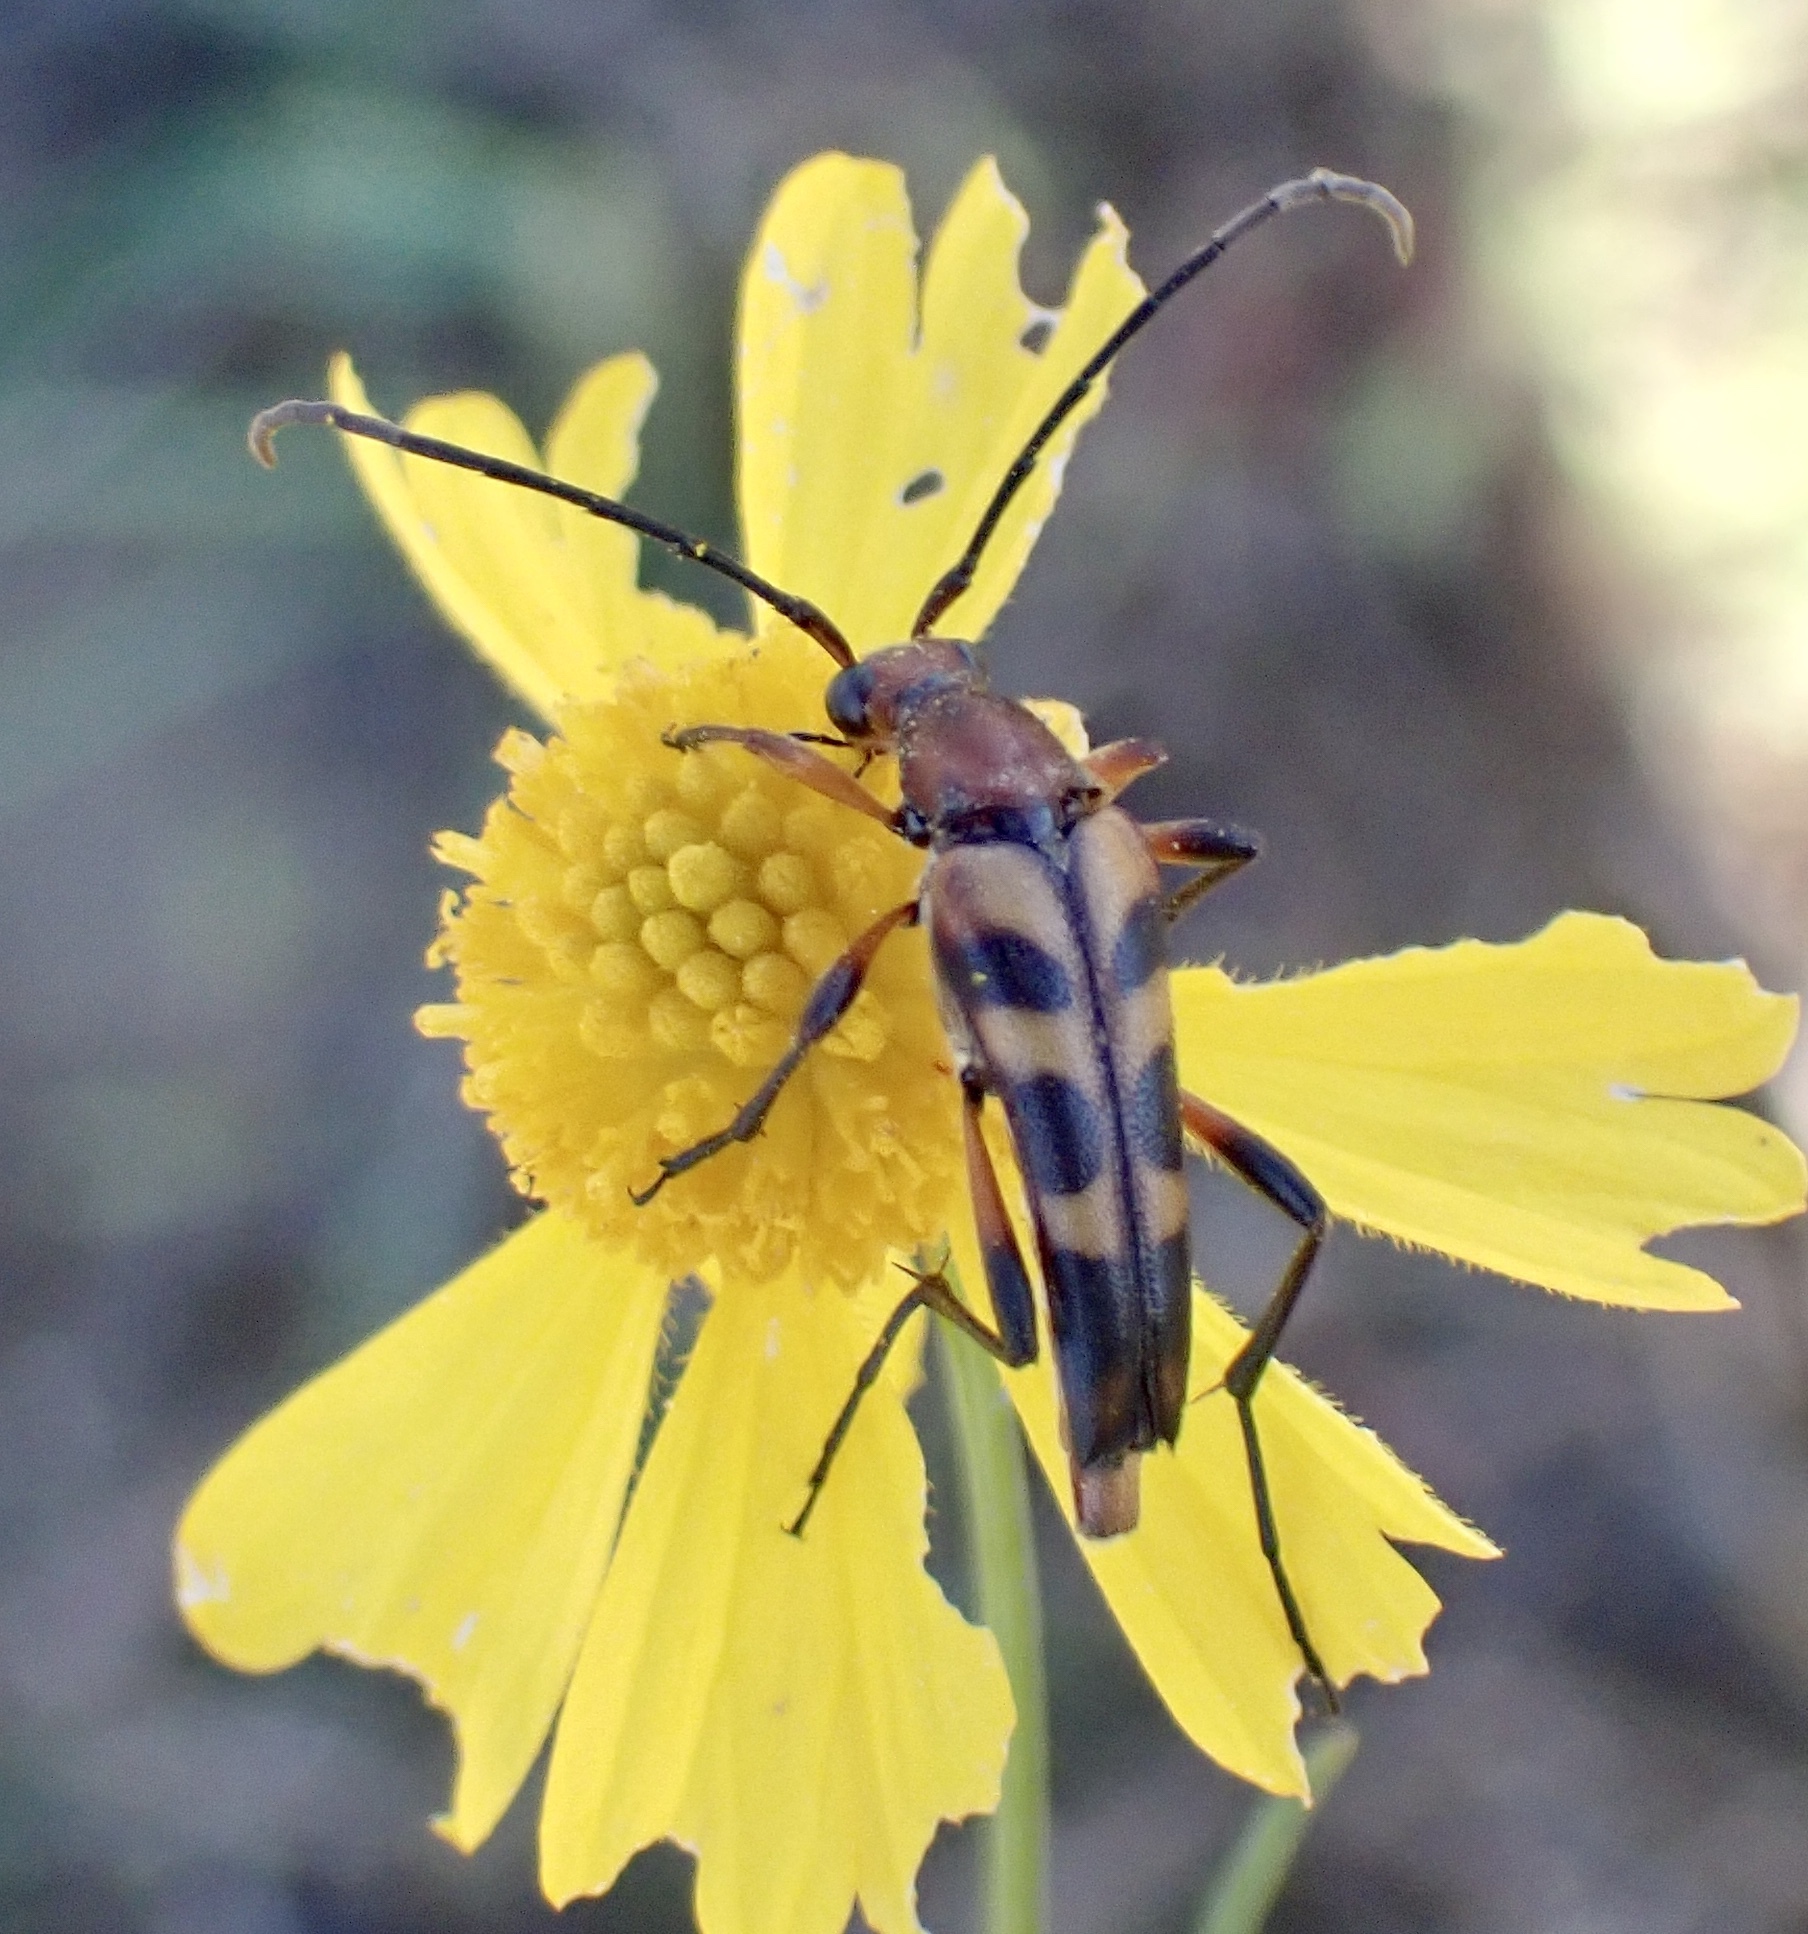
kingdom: Animalia
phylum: Arthropoda
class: Insecta
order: Coleoptera
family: Cerambycidae
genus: Strangalia
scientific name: Strangalia sexnotata
